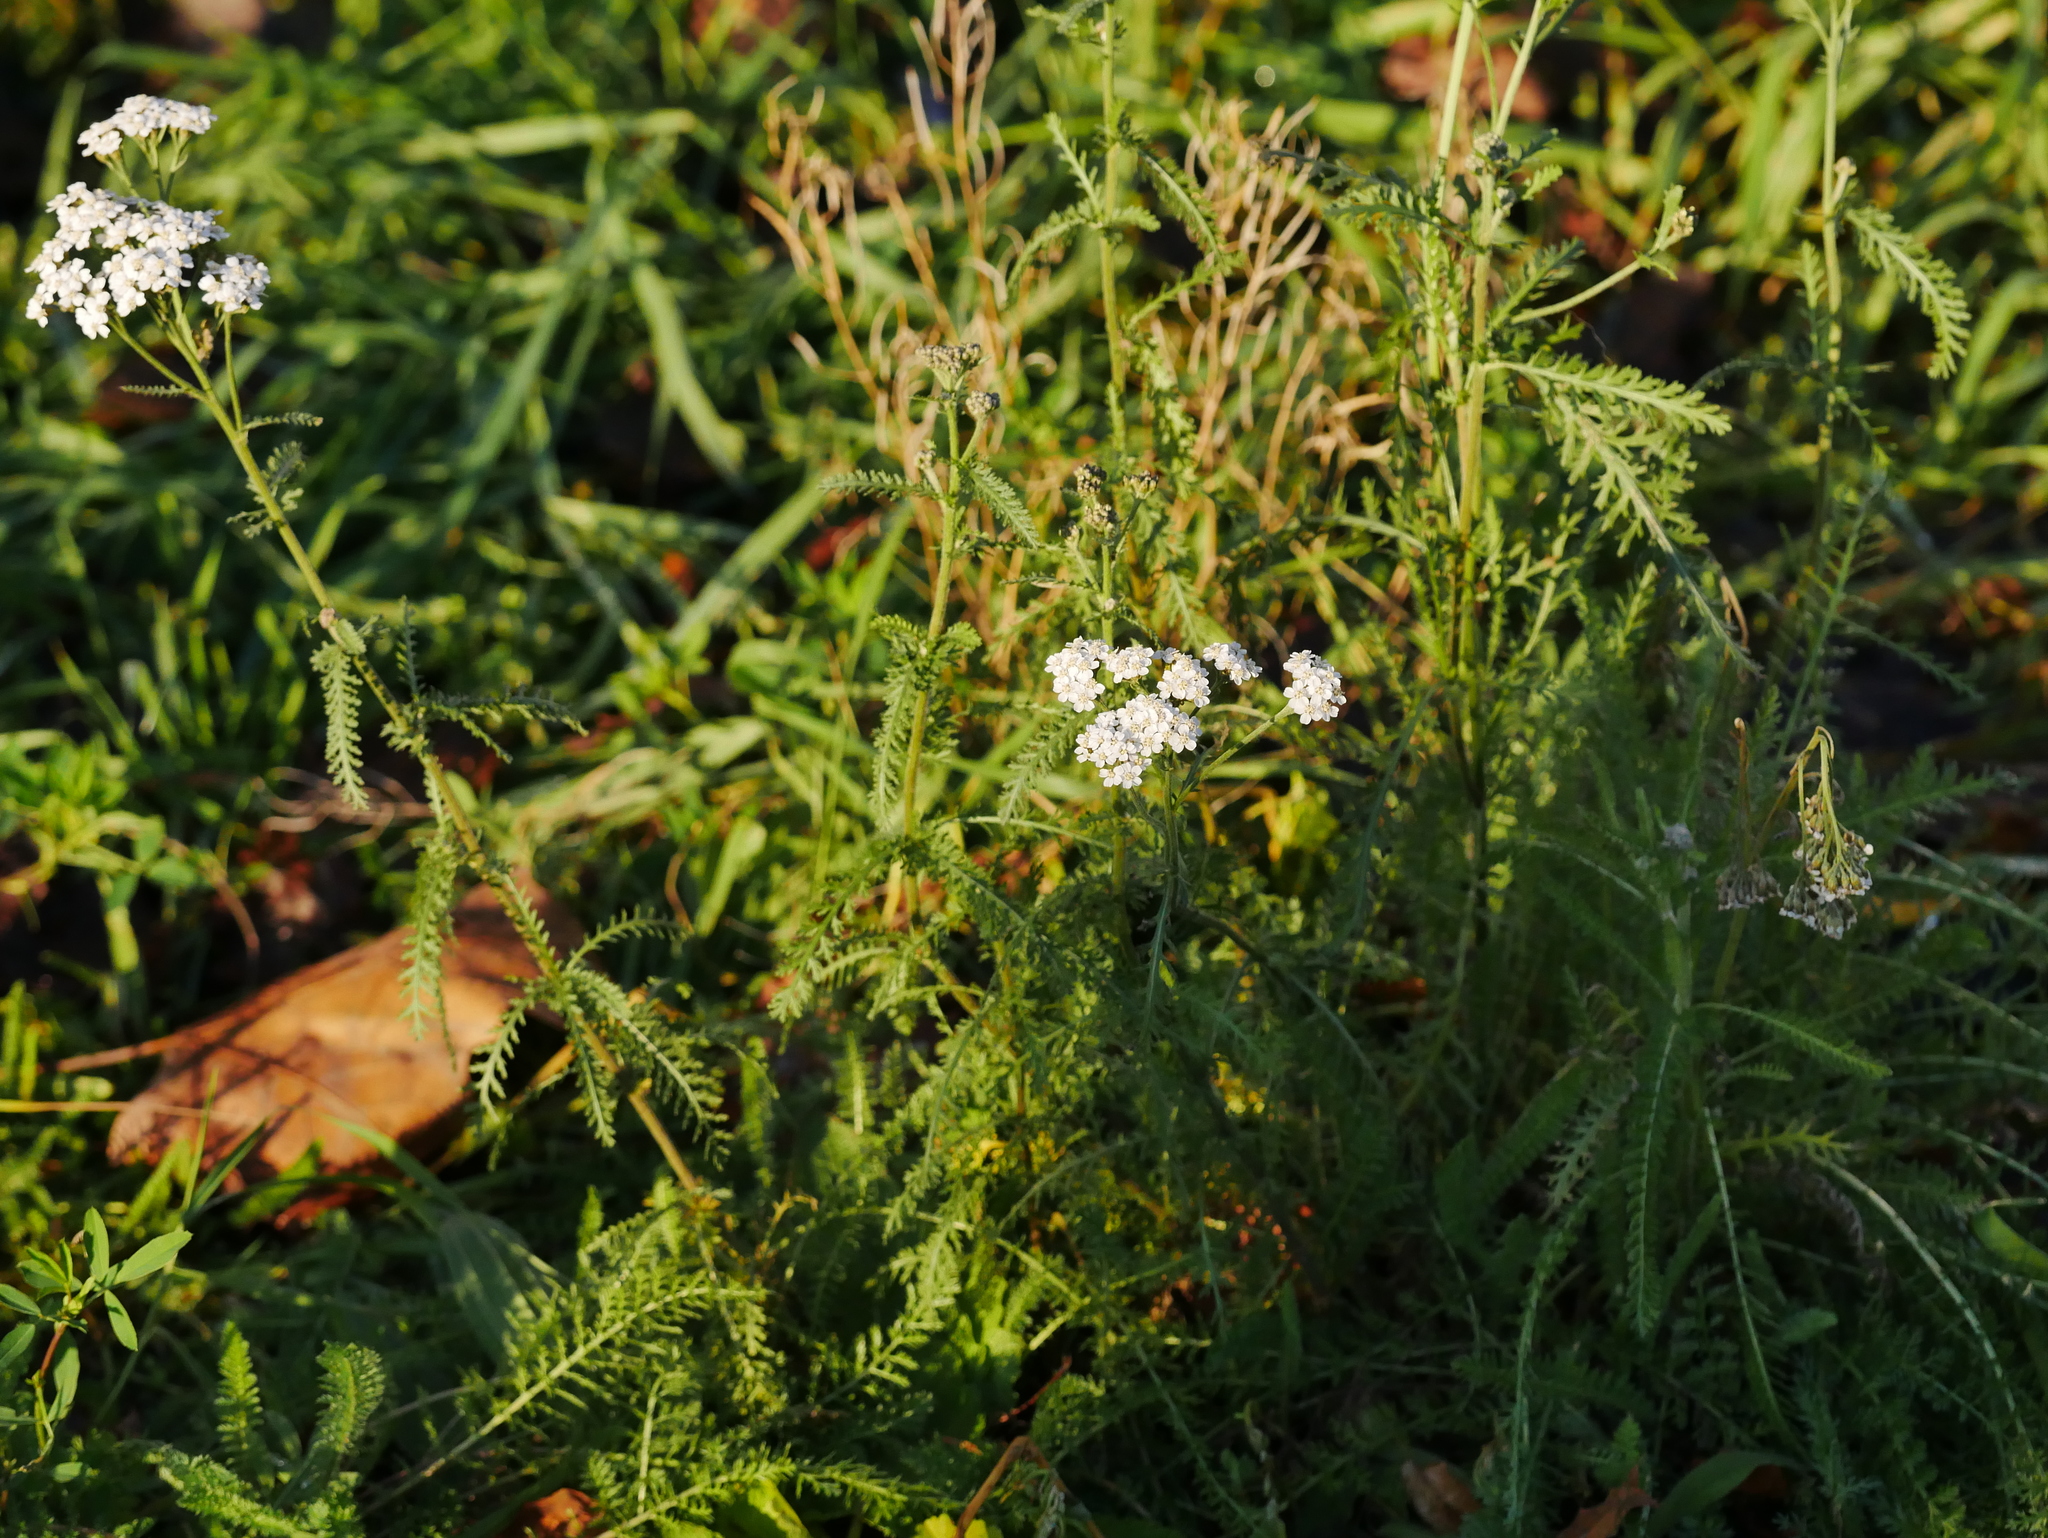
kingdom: Plantae
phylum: Tracheophyta
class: Magnoliopsida
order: Asterales
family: Asteraceae
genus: Achillea
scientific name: Achillea millefolium
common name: Yarrow
